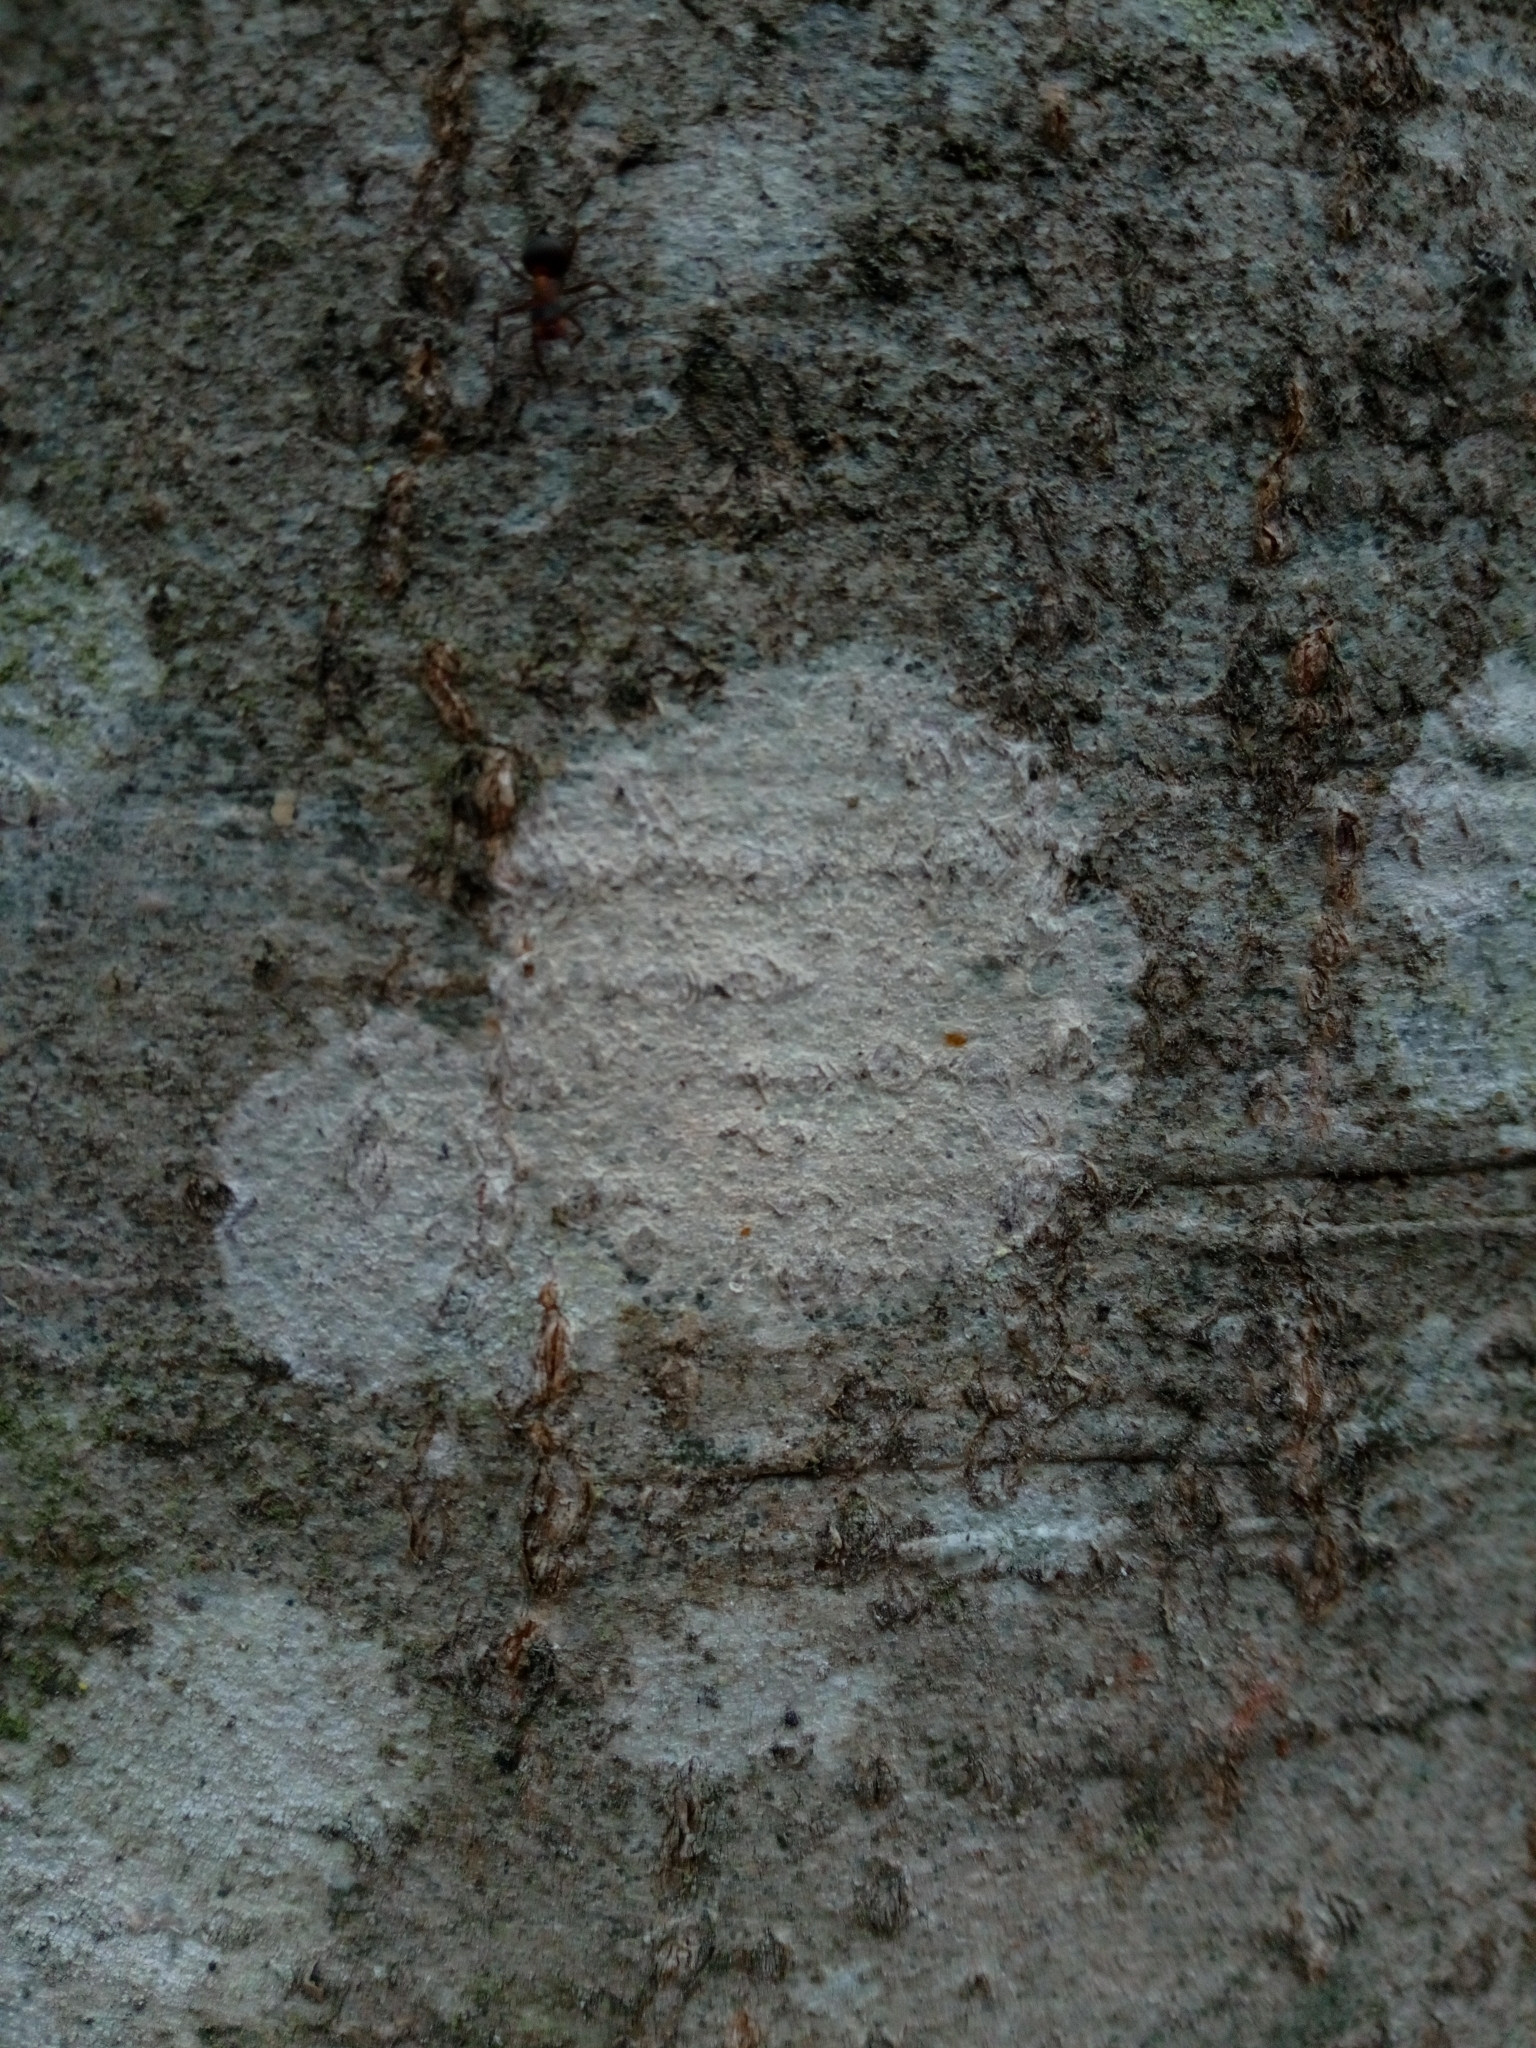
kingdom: Fungi
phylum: Ascomycota
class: Lecanoromycetes
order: Ostropales
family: Phlyctidaceae
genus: Phlyctis
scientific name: Phlyctis argena
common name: Whitewash lichen
